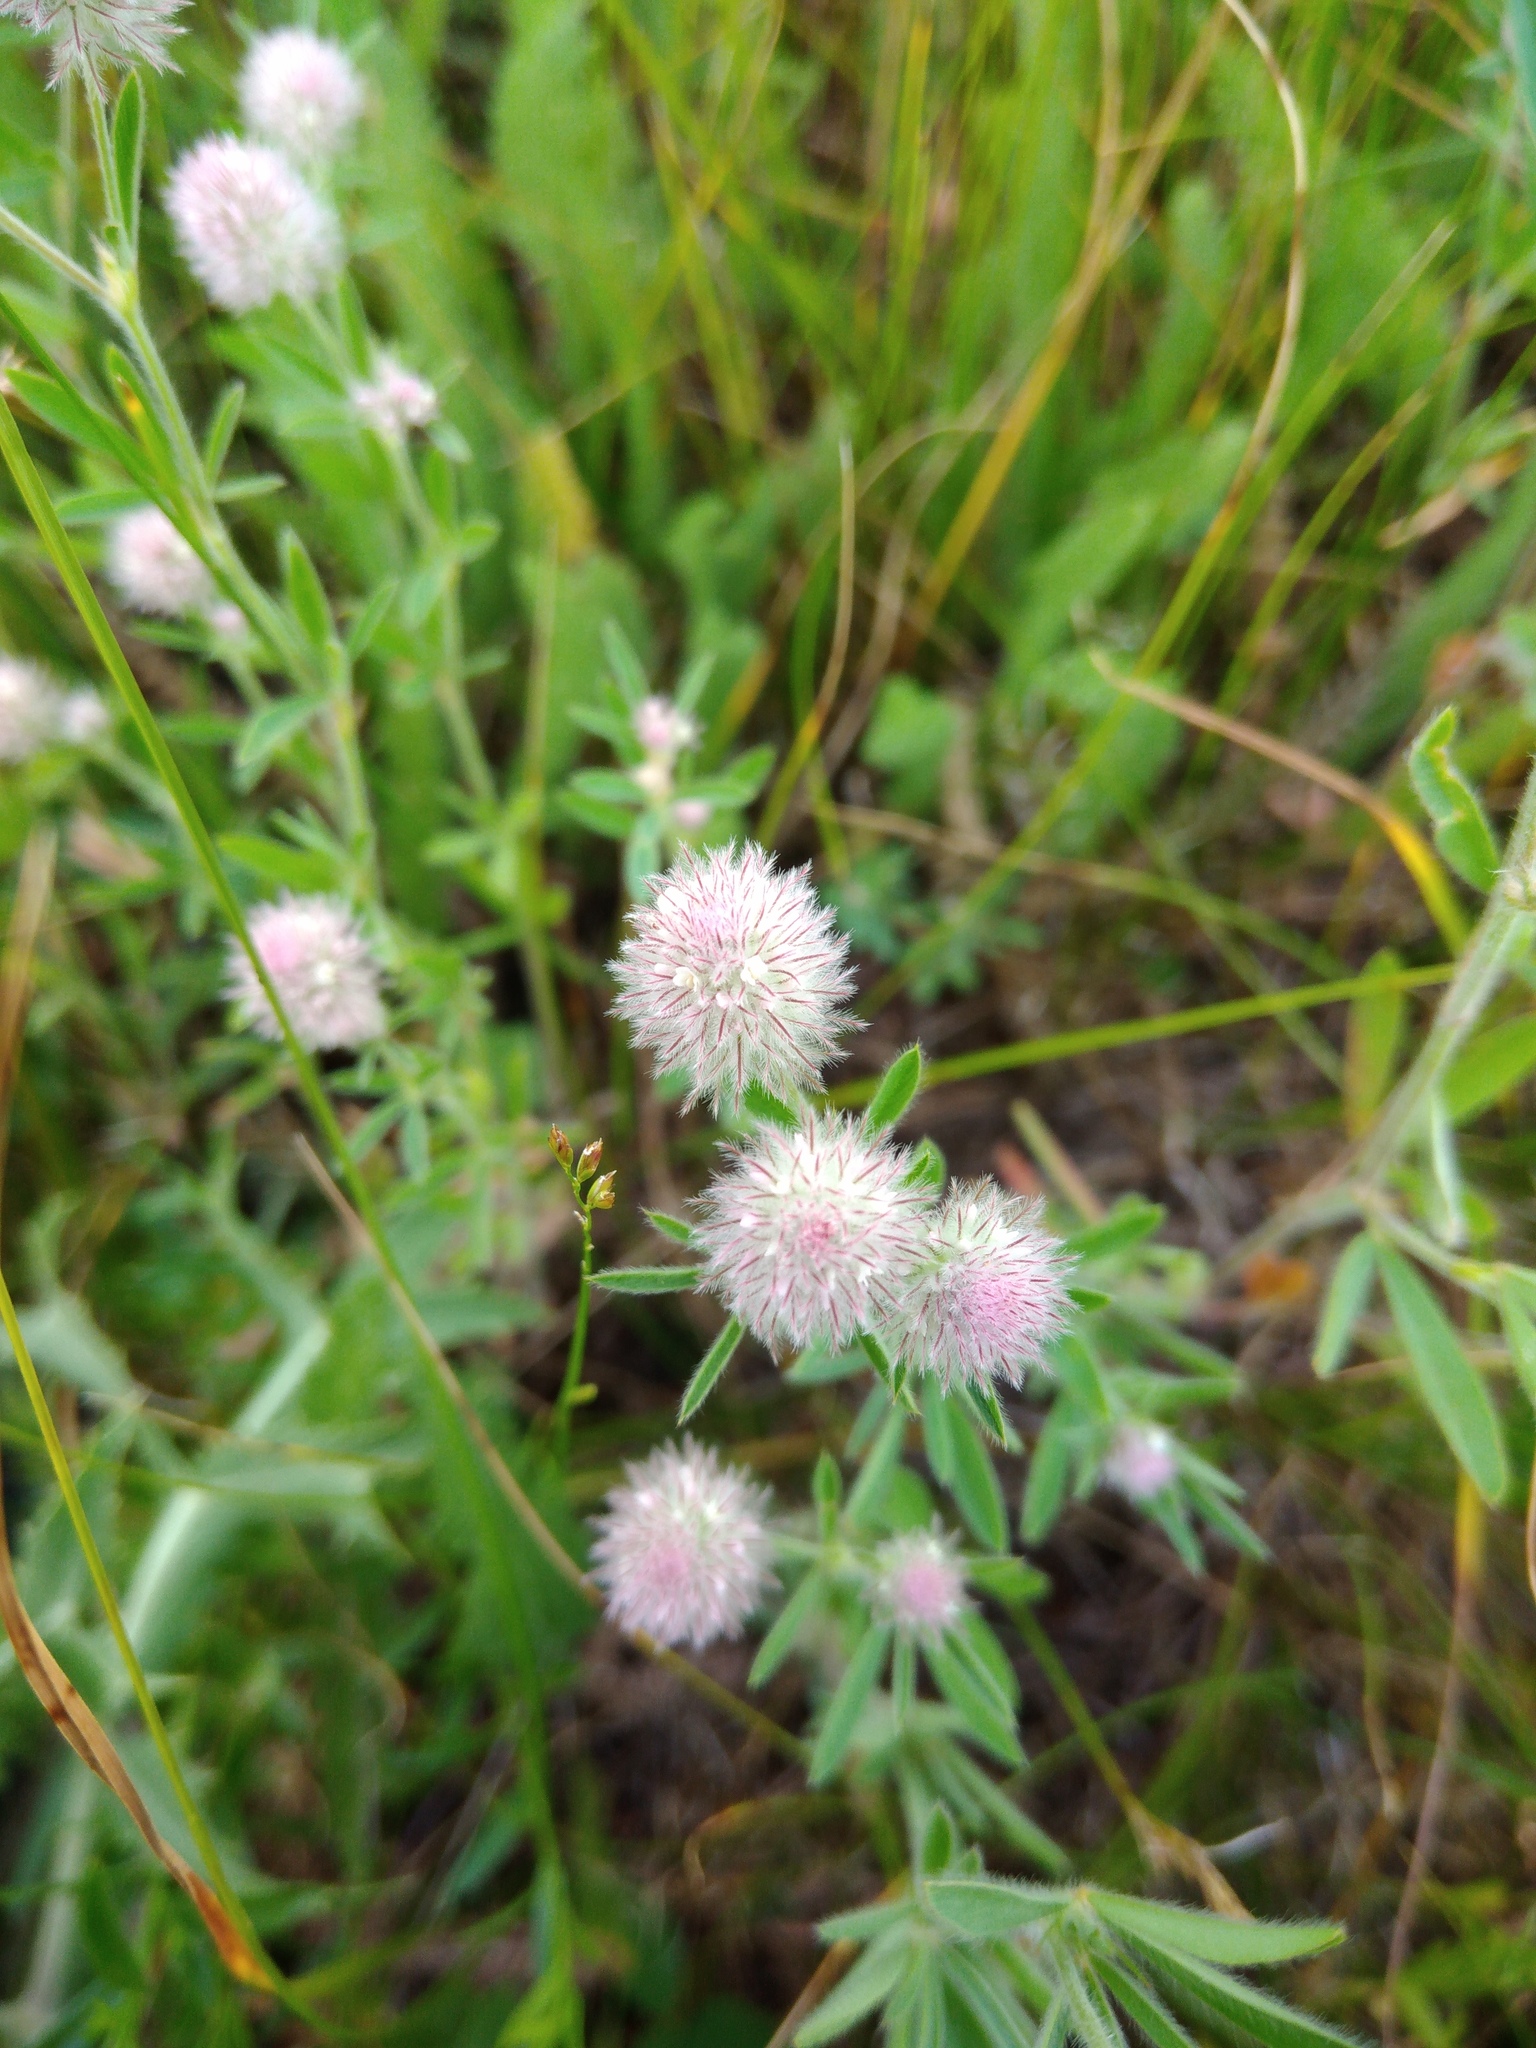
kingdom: Plantae
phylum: Tracheophyta
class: Magnoliopsida
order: Fabales
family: Fabaceae
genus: Trifolium
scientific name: Trifolium arvense
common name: Hare's-foot clover
